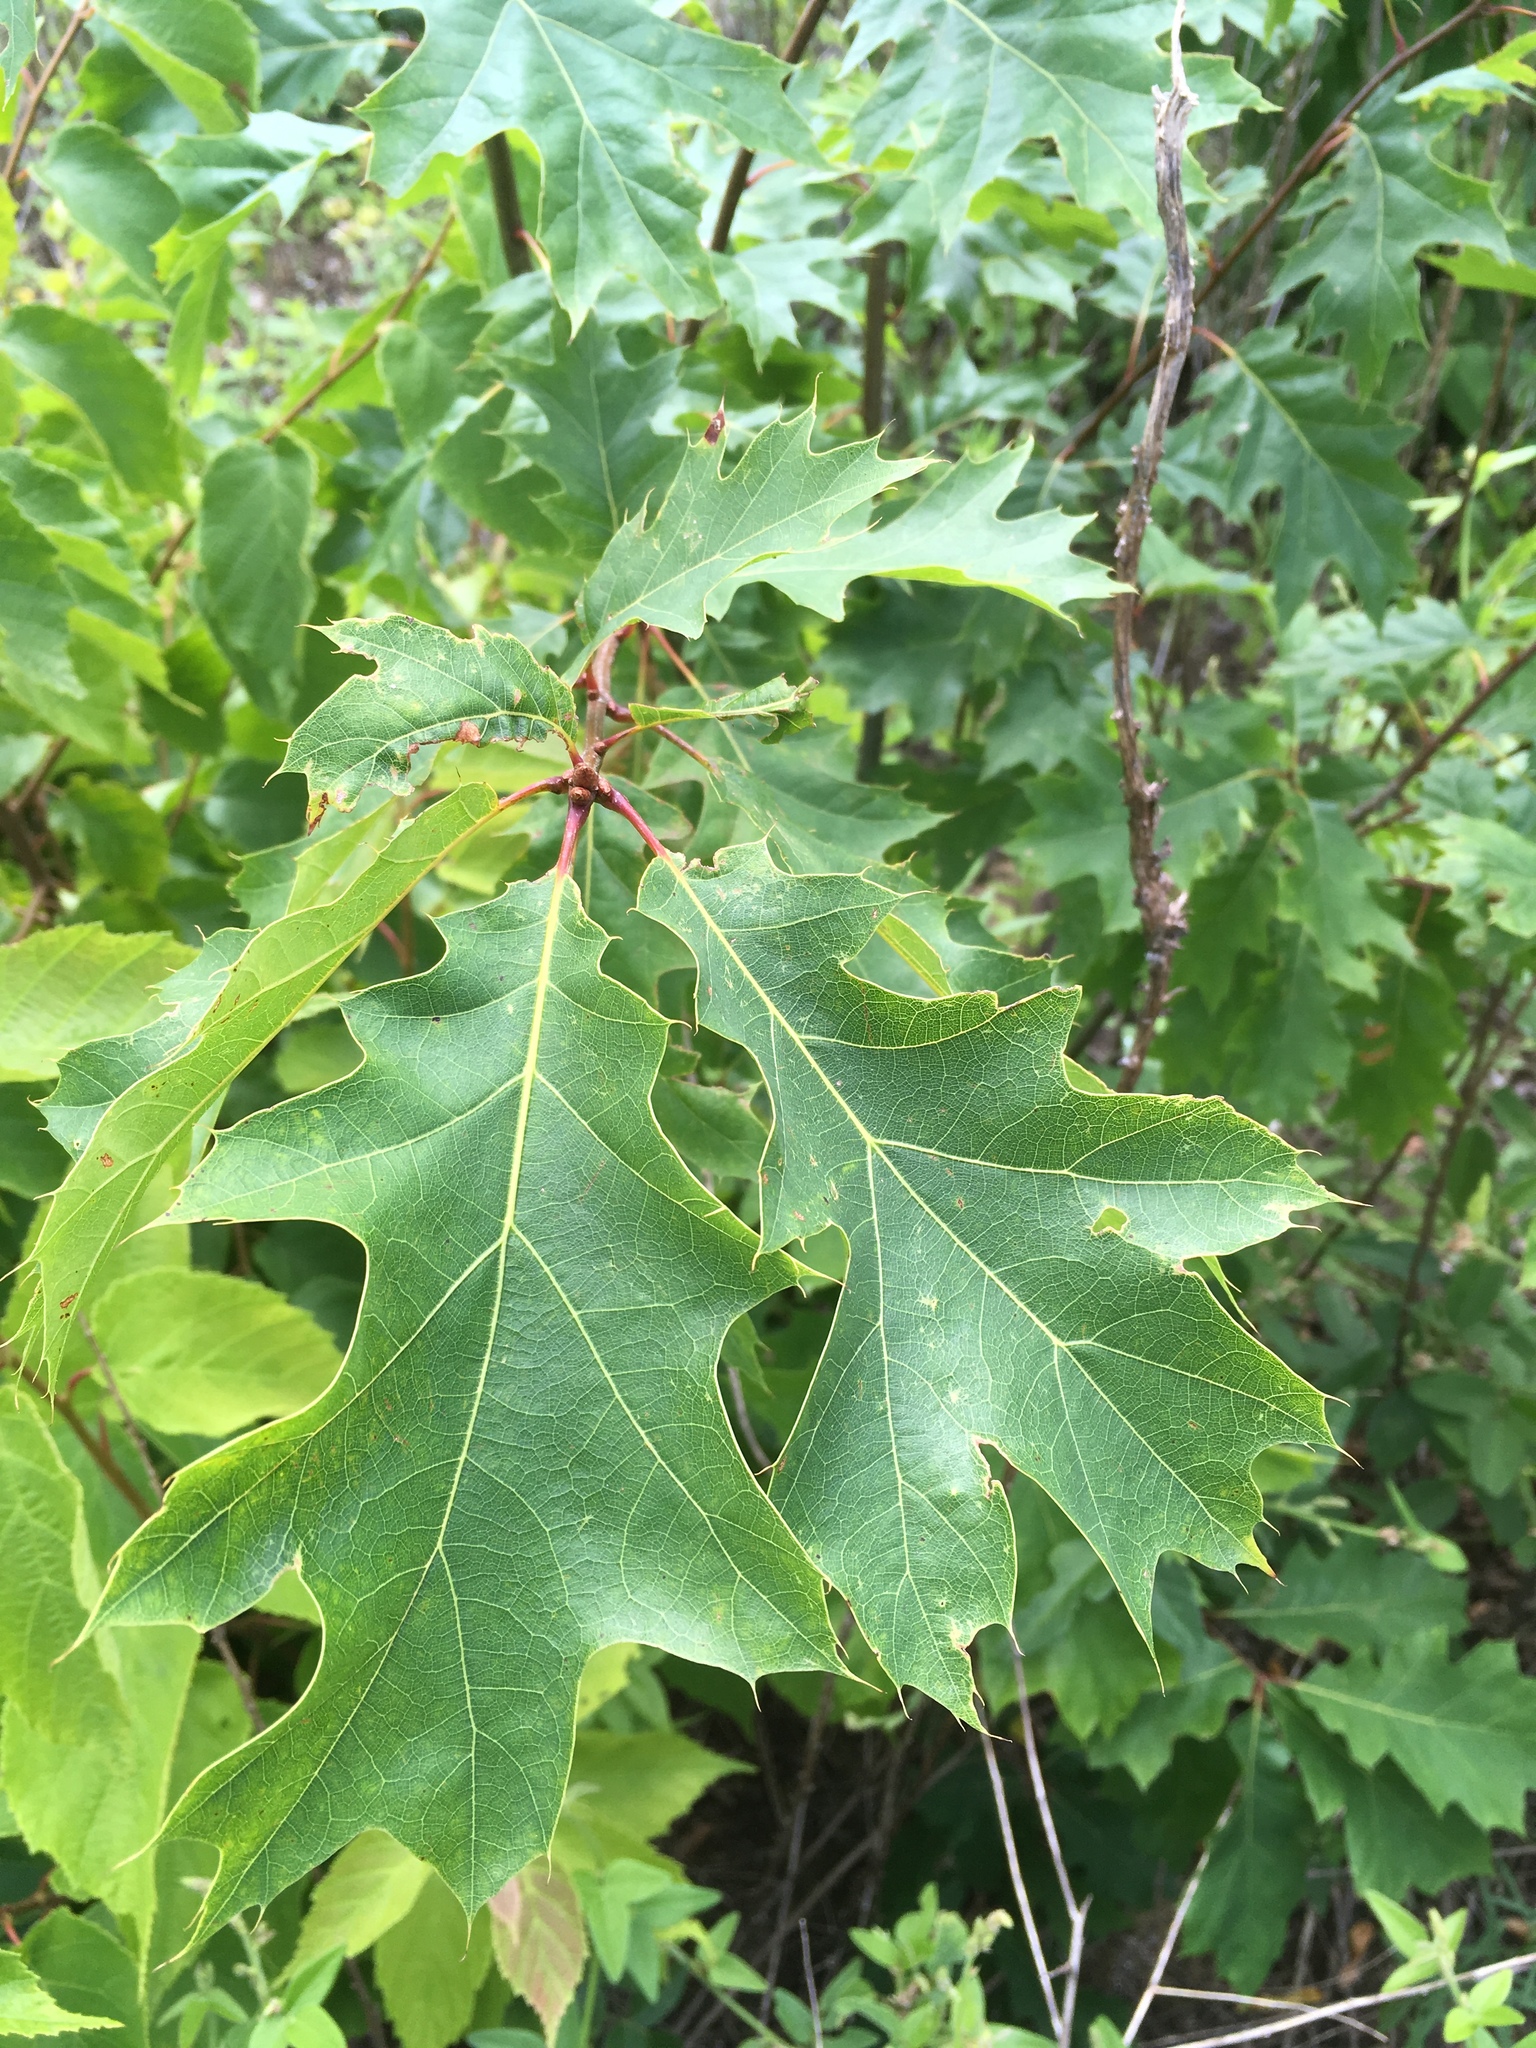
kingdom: Plantae
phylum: Tracheophyta
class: Magnoliopsida
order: Fagales
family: Fagaceae
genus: Quercus
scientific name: Quercus rubra
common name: Red oak
